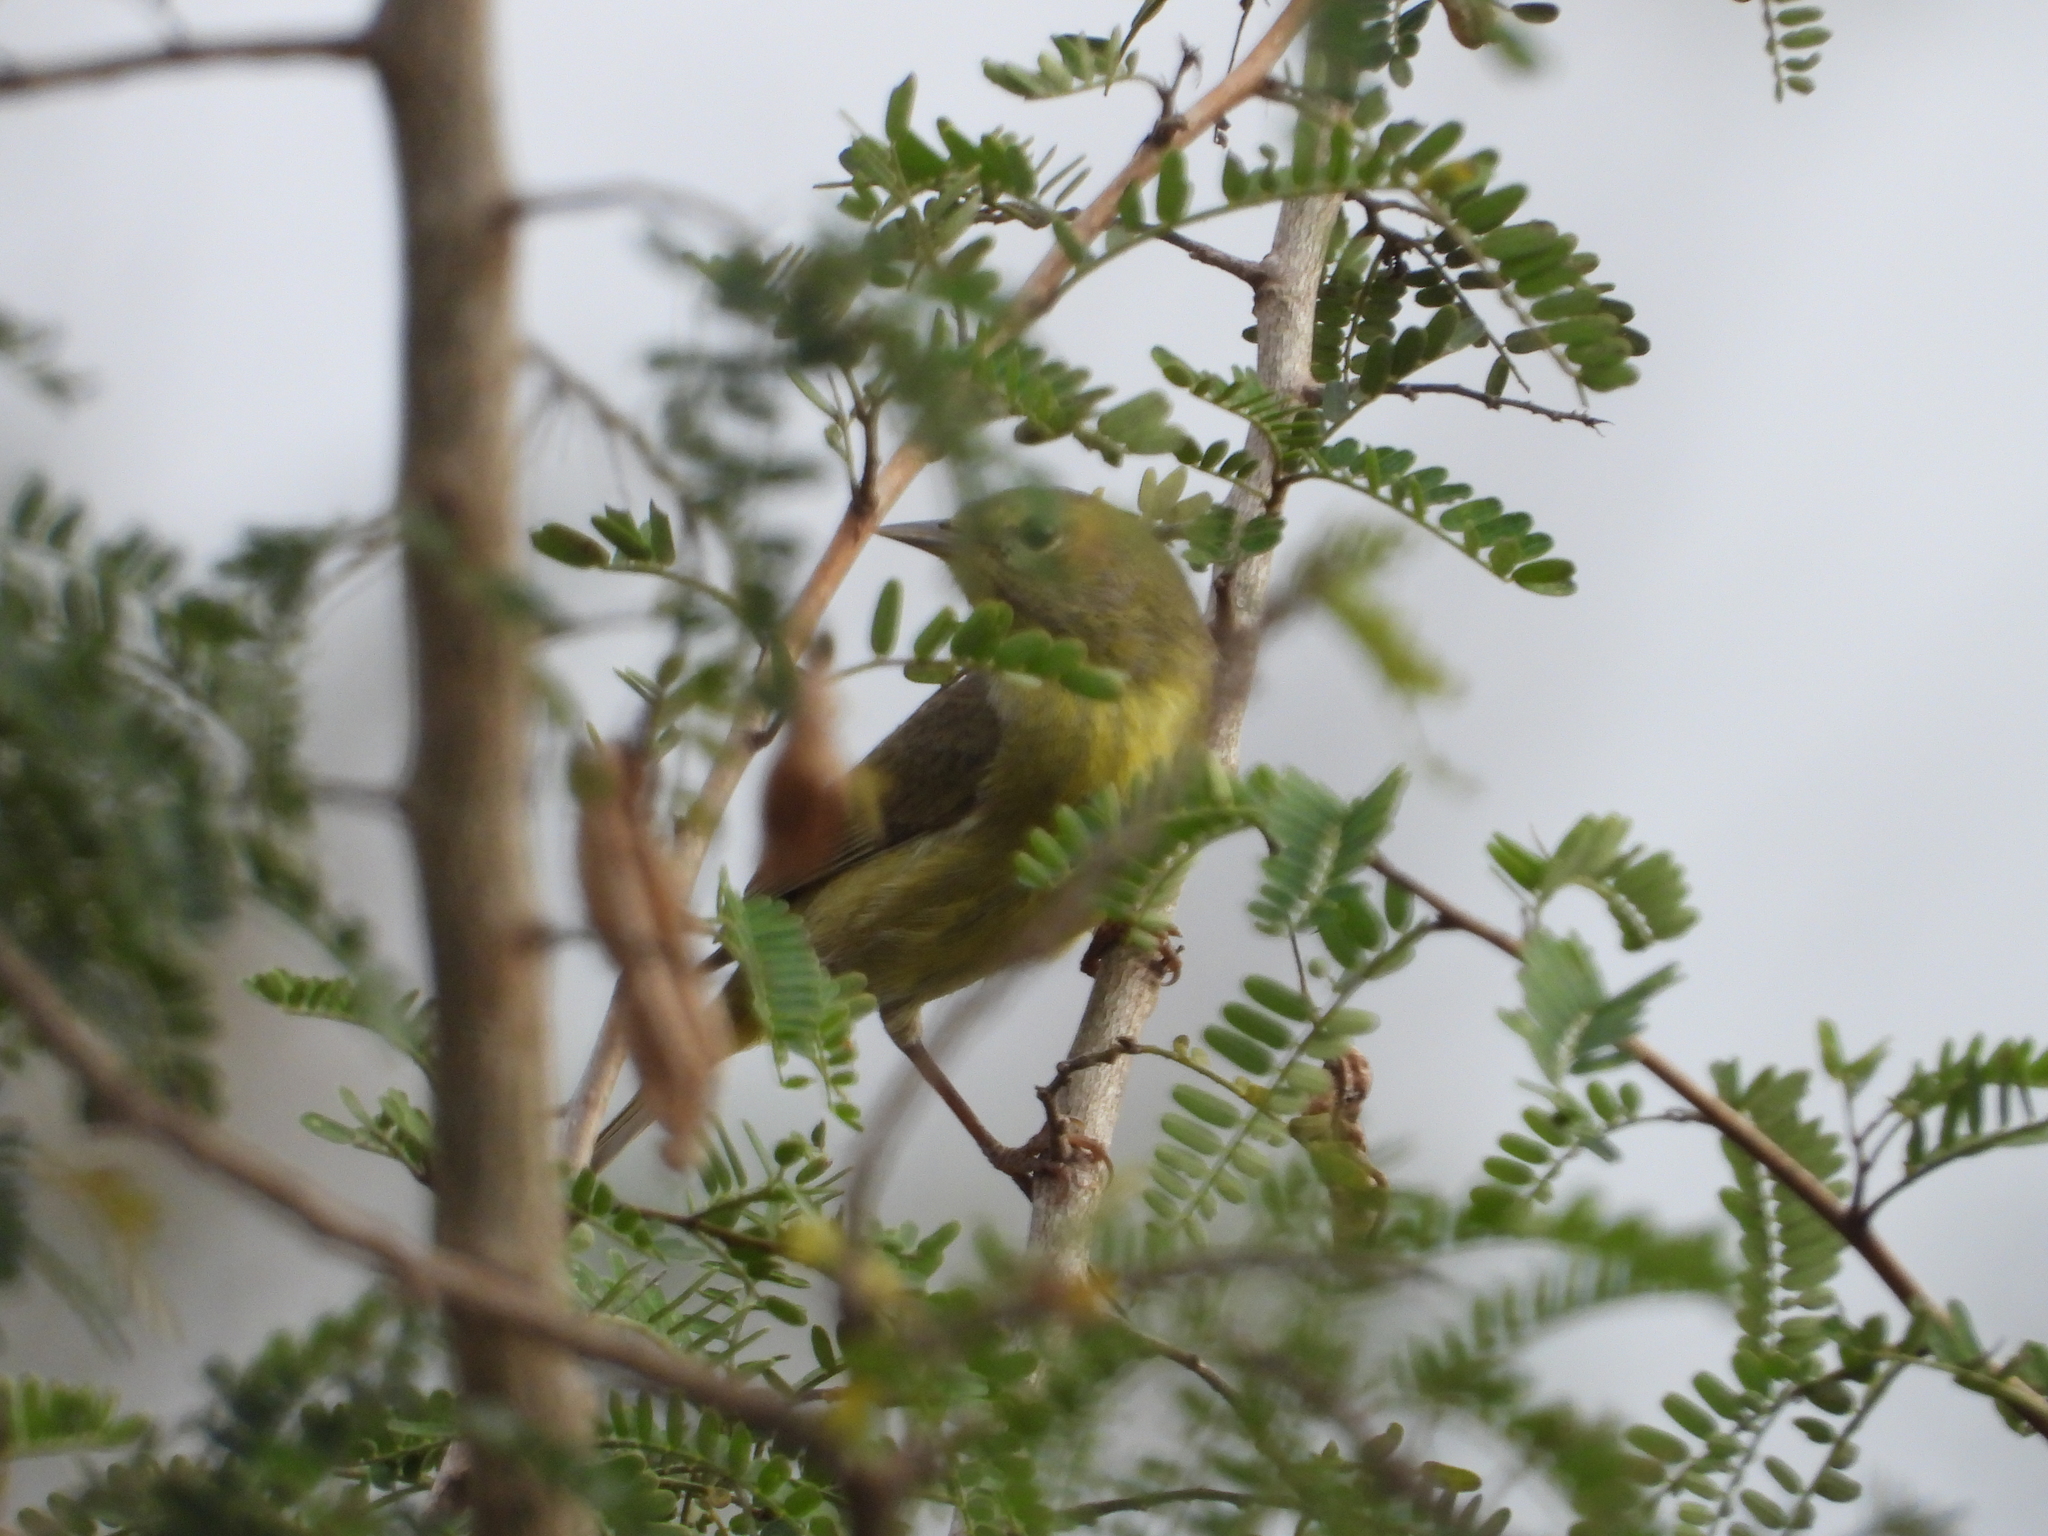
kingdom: Animalia
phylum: Chordata
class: Aves
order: Passeriformes
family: Parulidae
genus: Leiothlypis
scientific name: Leiothlypis celata
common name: Orange-crowned warbler
